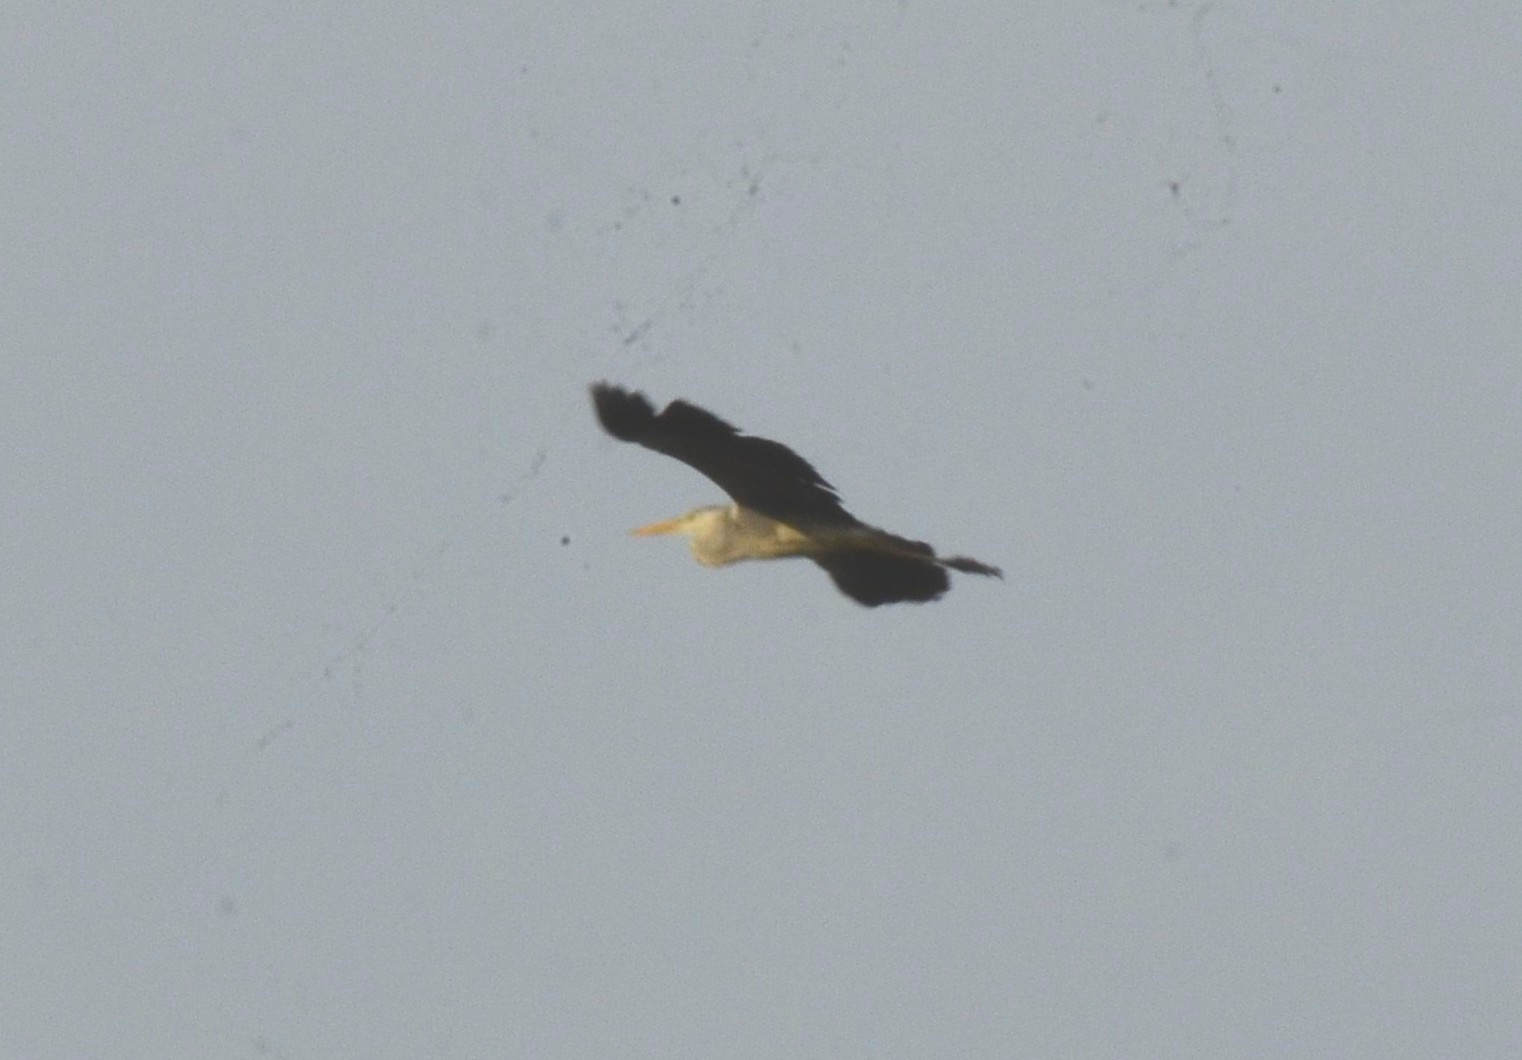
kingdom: Animalia
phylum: Chordata
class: Aves
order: Pelecaniformes
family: Ardeidae
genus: Ardea
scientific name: Ardea cinerea
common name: Grey heron
